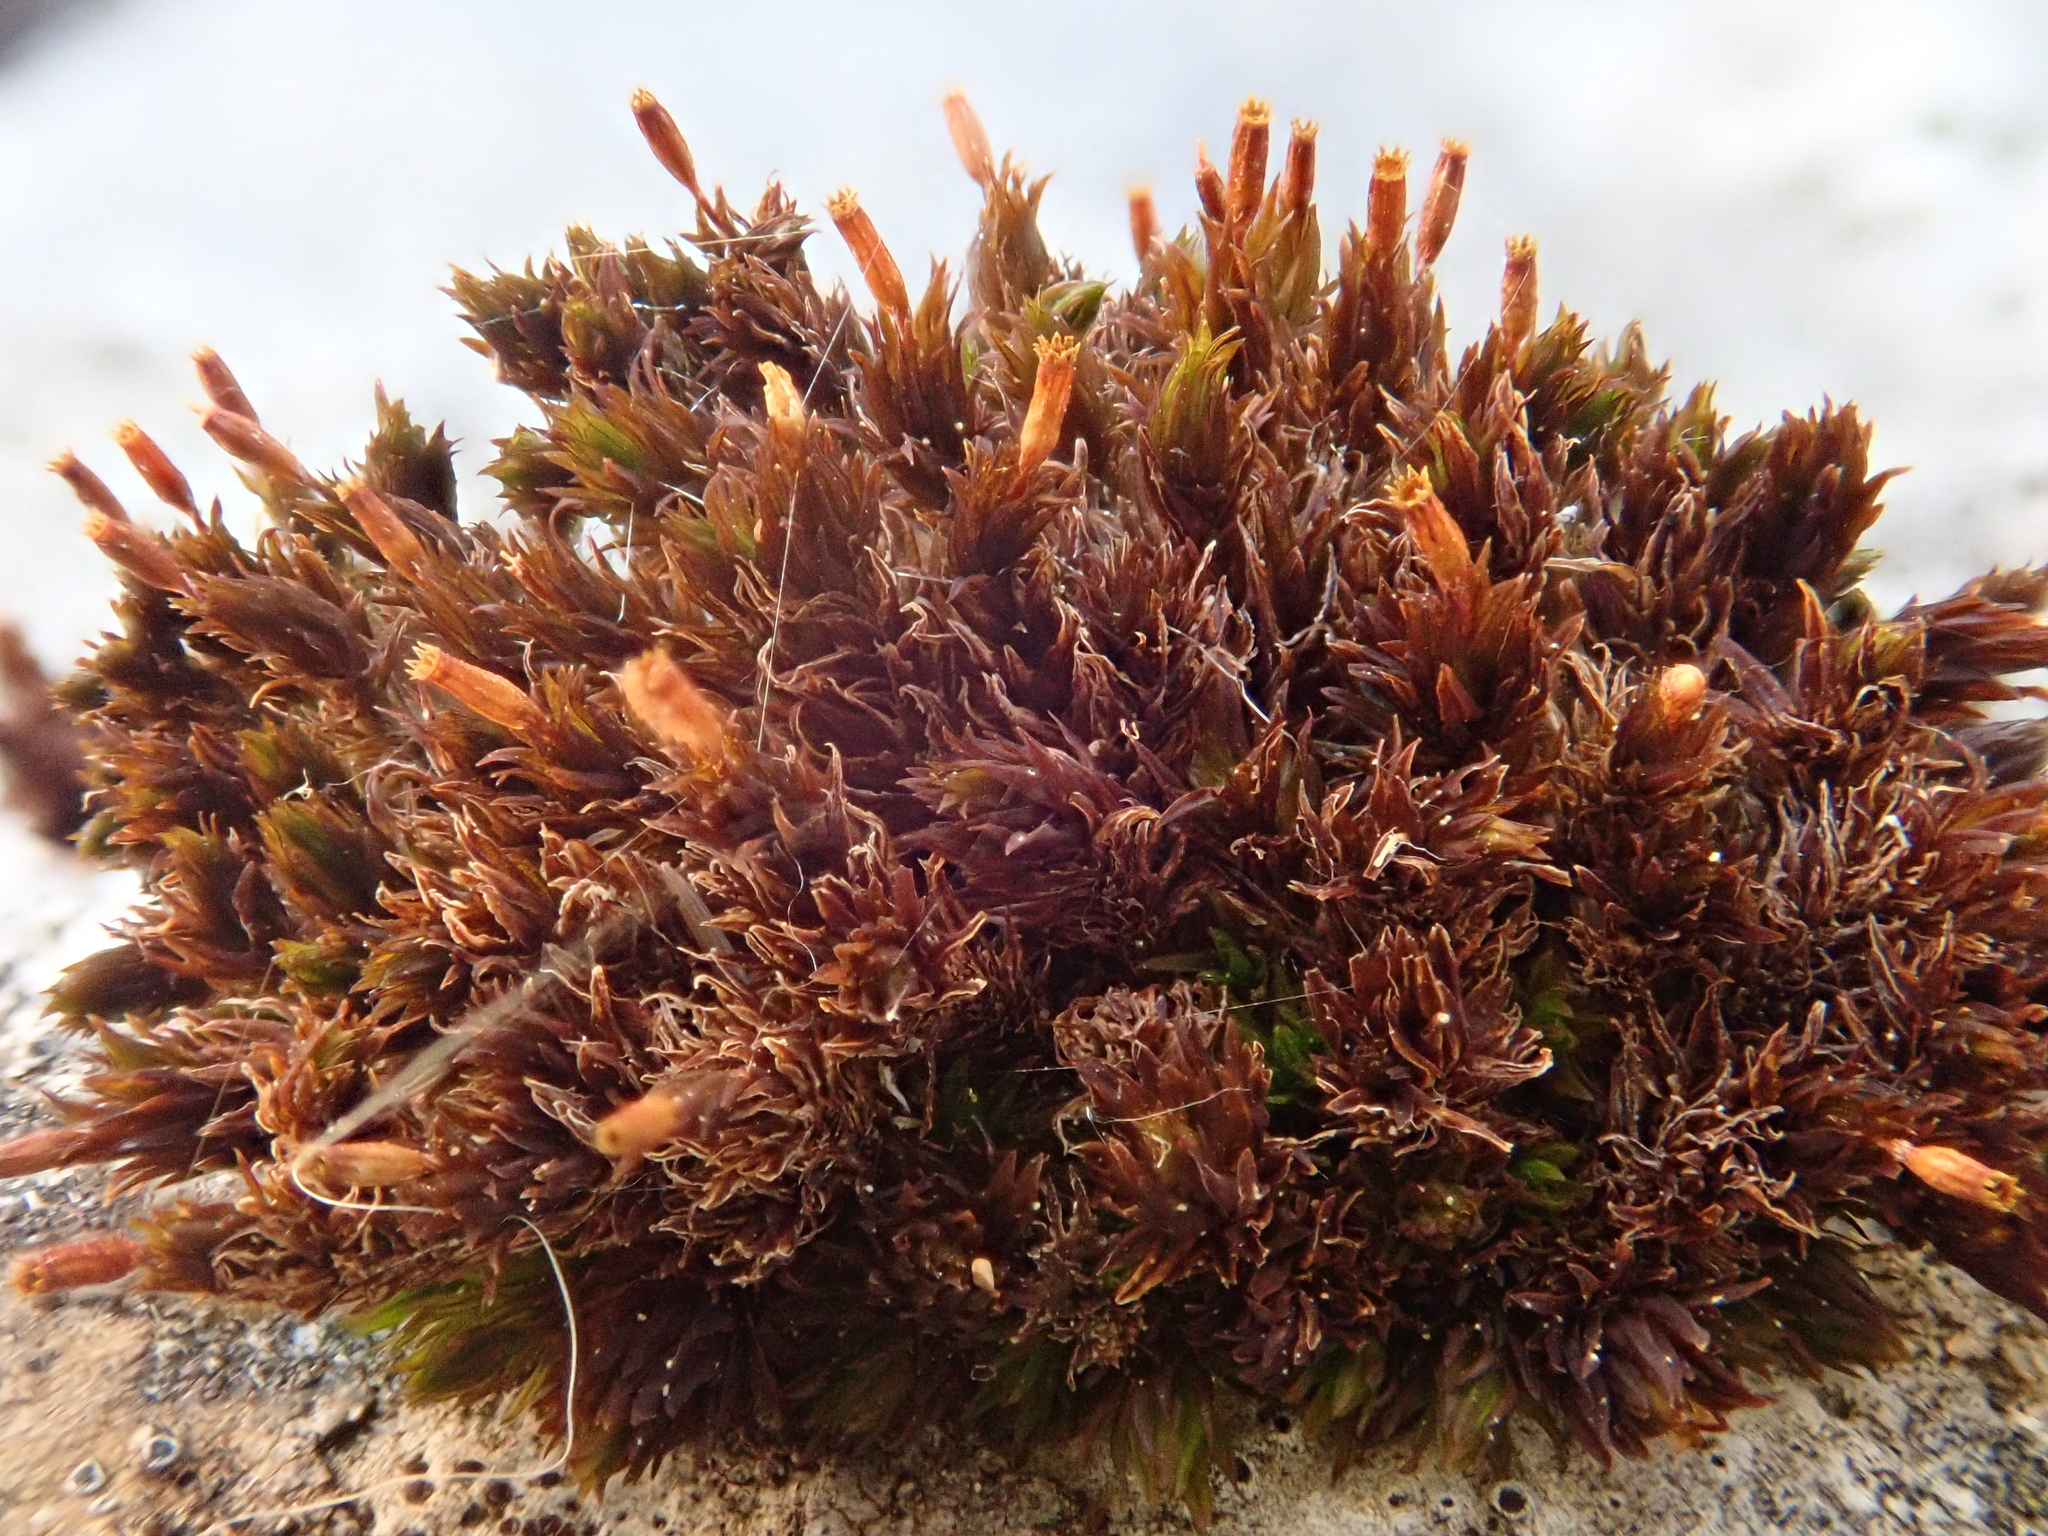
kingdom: Plantae
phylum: Bryophyta
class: Bryopsida
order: Orthotrichales
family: Orthotrichaceae
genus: Orthotrichum
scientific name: Orthotrichum anomalum
